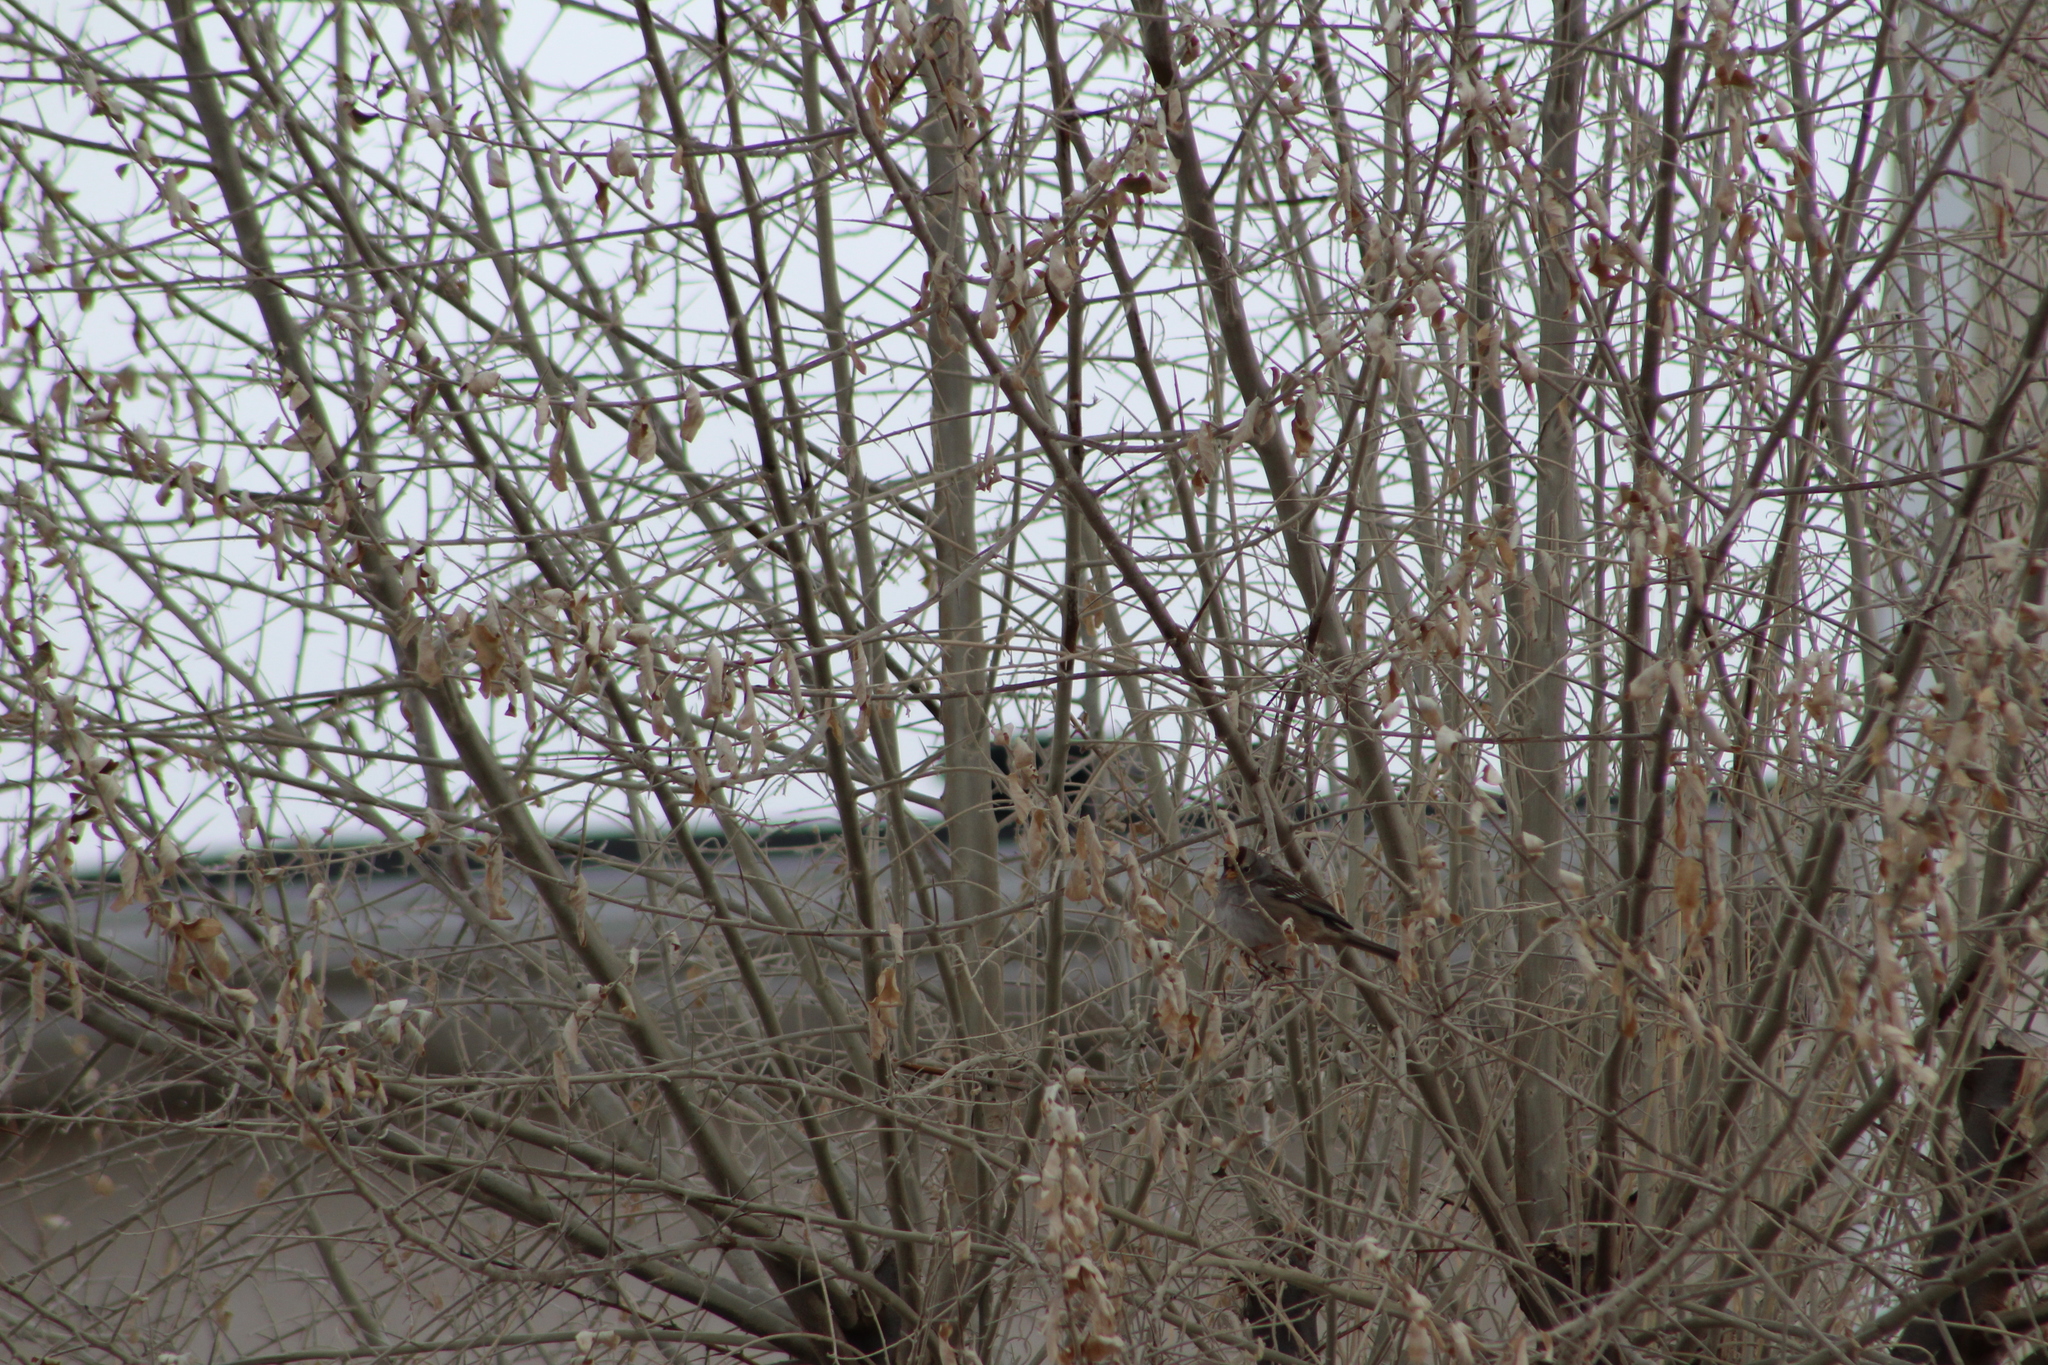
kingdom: Animalia
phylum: Chordata
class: Aves
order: Passeriformes
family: Passerellidae
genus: Zonotrichia
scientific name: Zonotrichia leucophrys
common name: White-crowned sparrow
